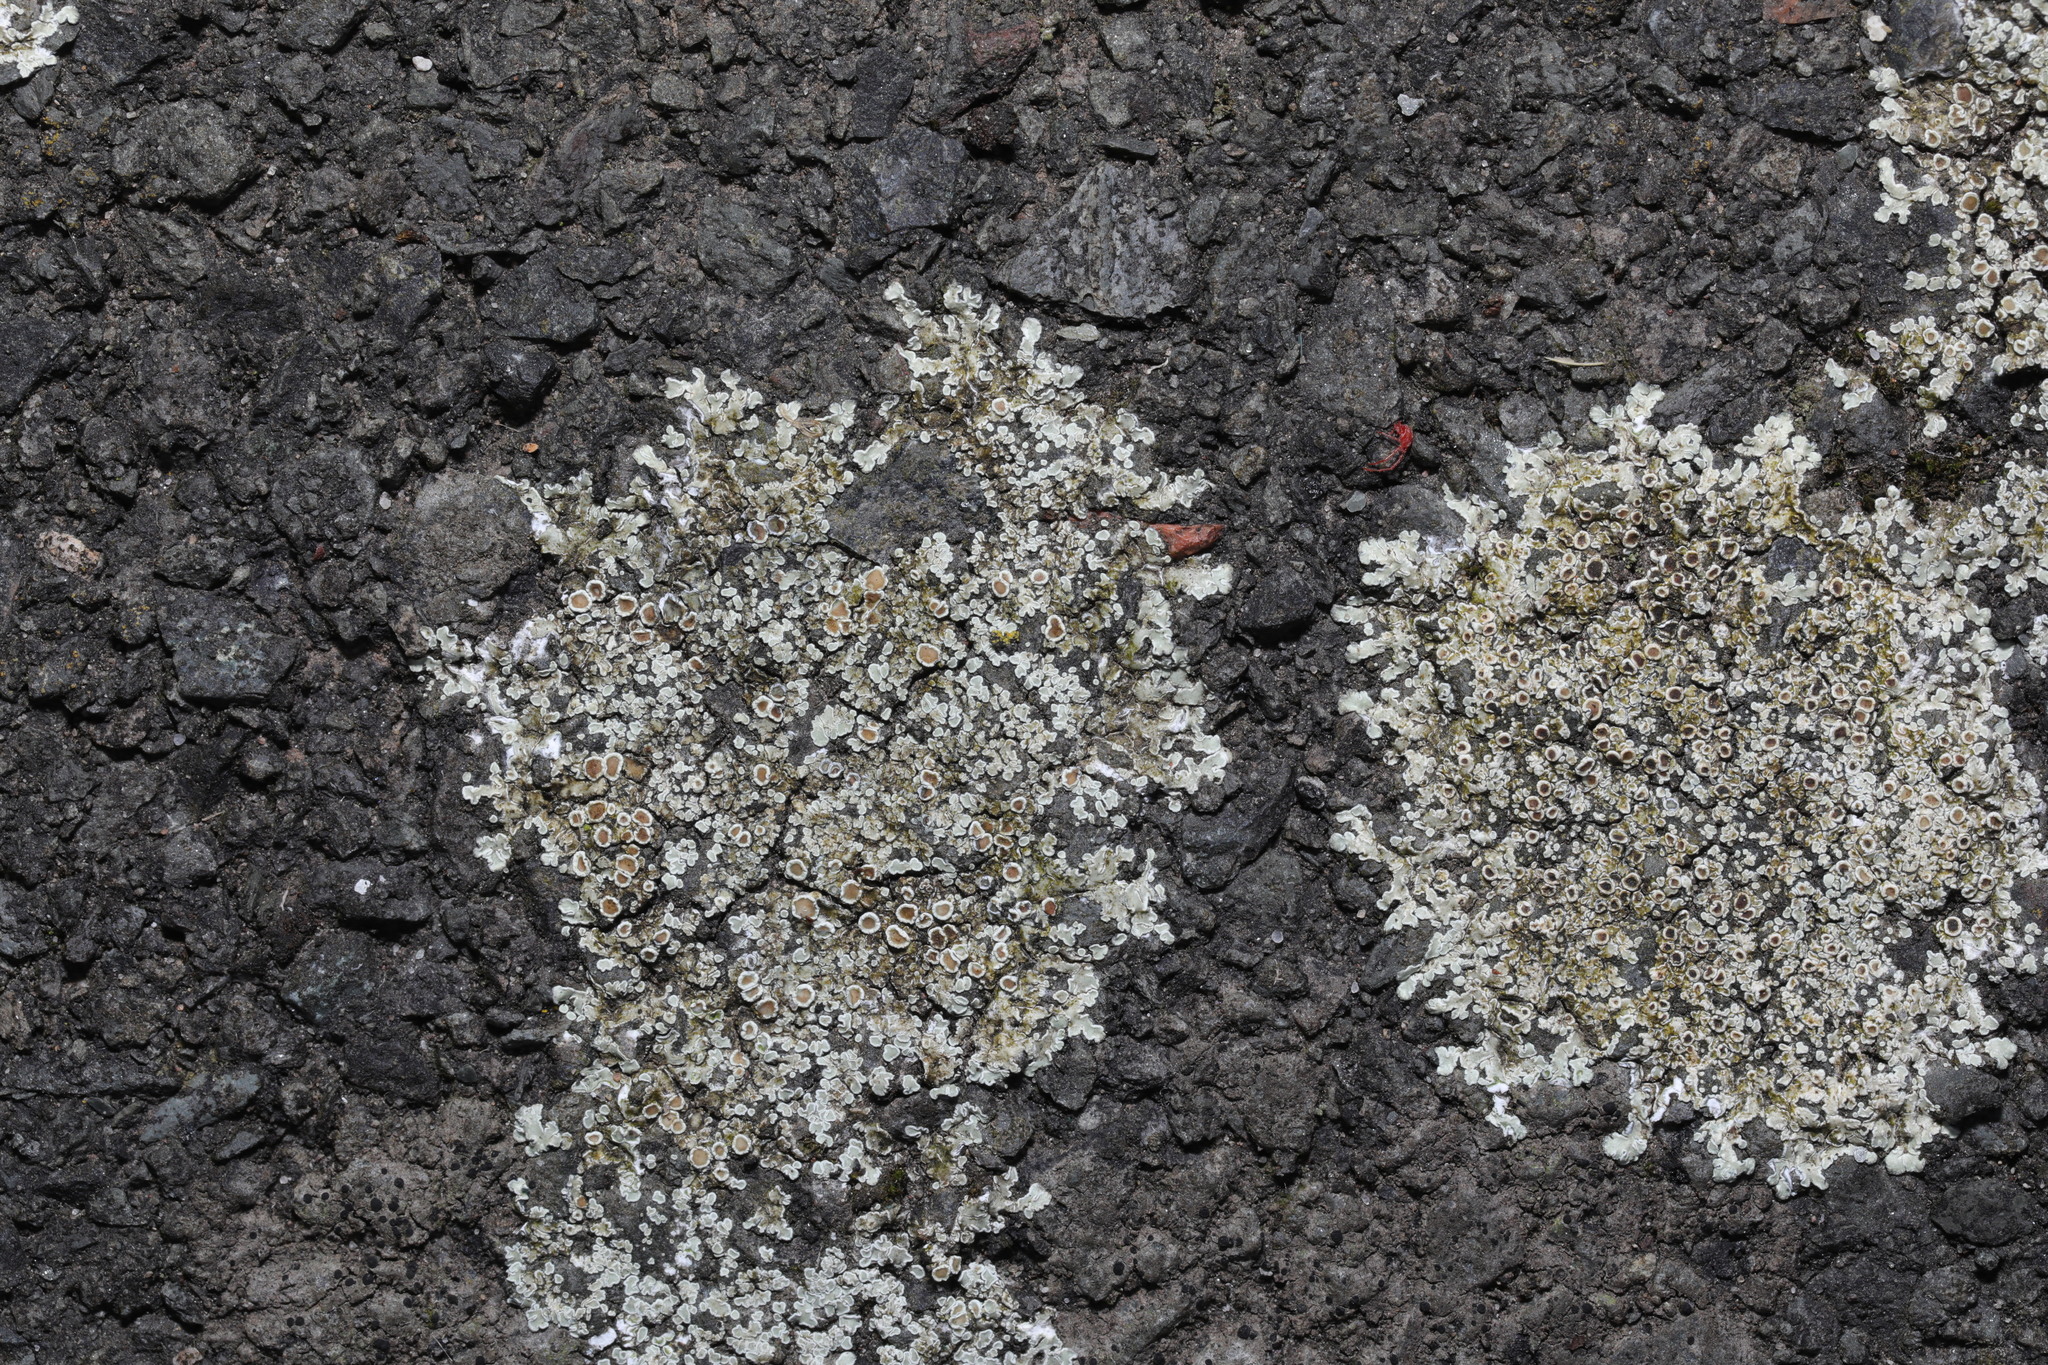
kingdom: Fungi
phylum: Ascomycota
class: Lecanoromycetes
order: Lecanorales
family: Lecanoraceae
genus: Protoparmeliopsis
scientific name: Protoparmeliopsis muralis
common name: Stonewall rim lichen
